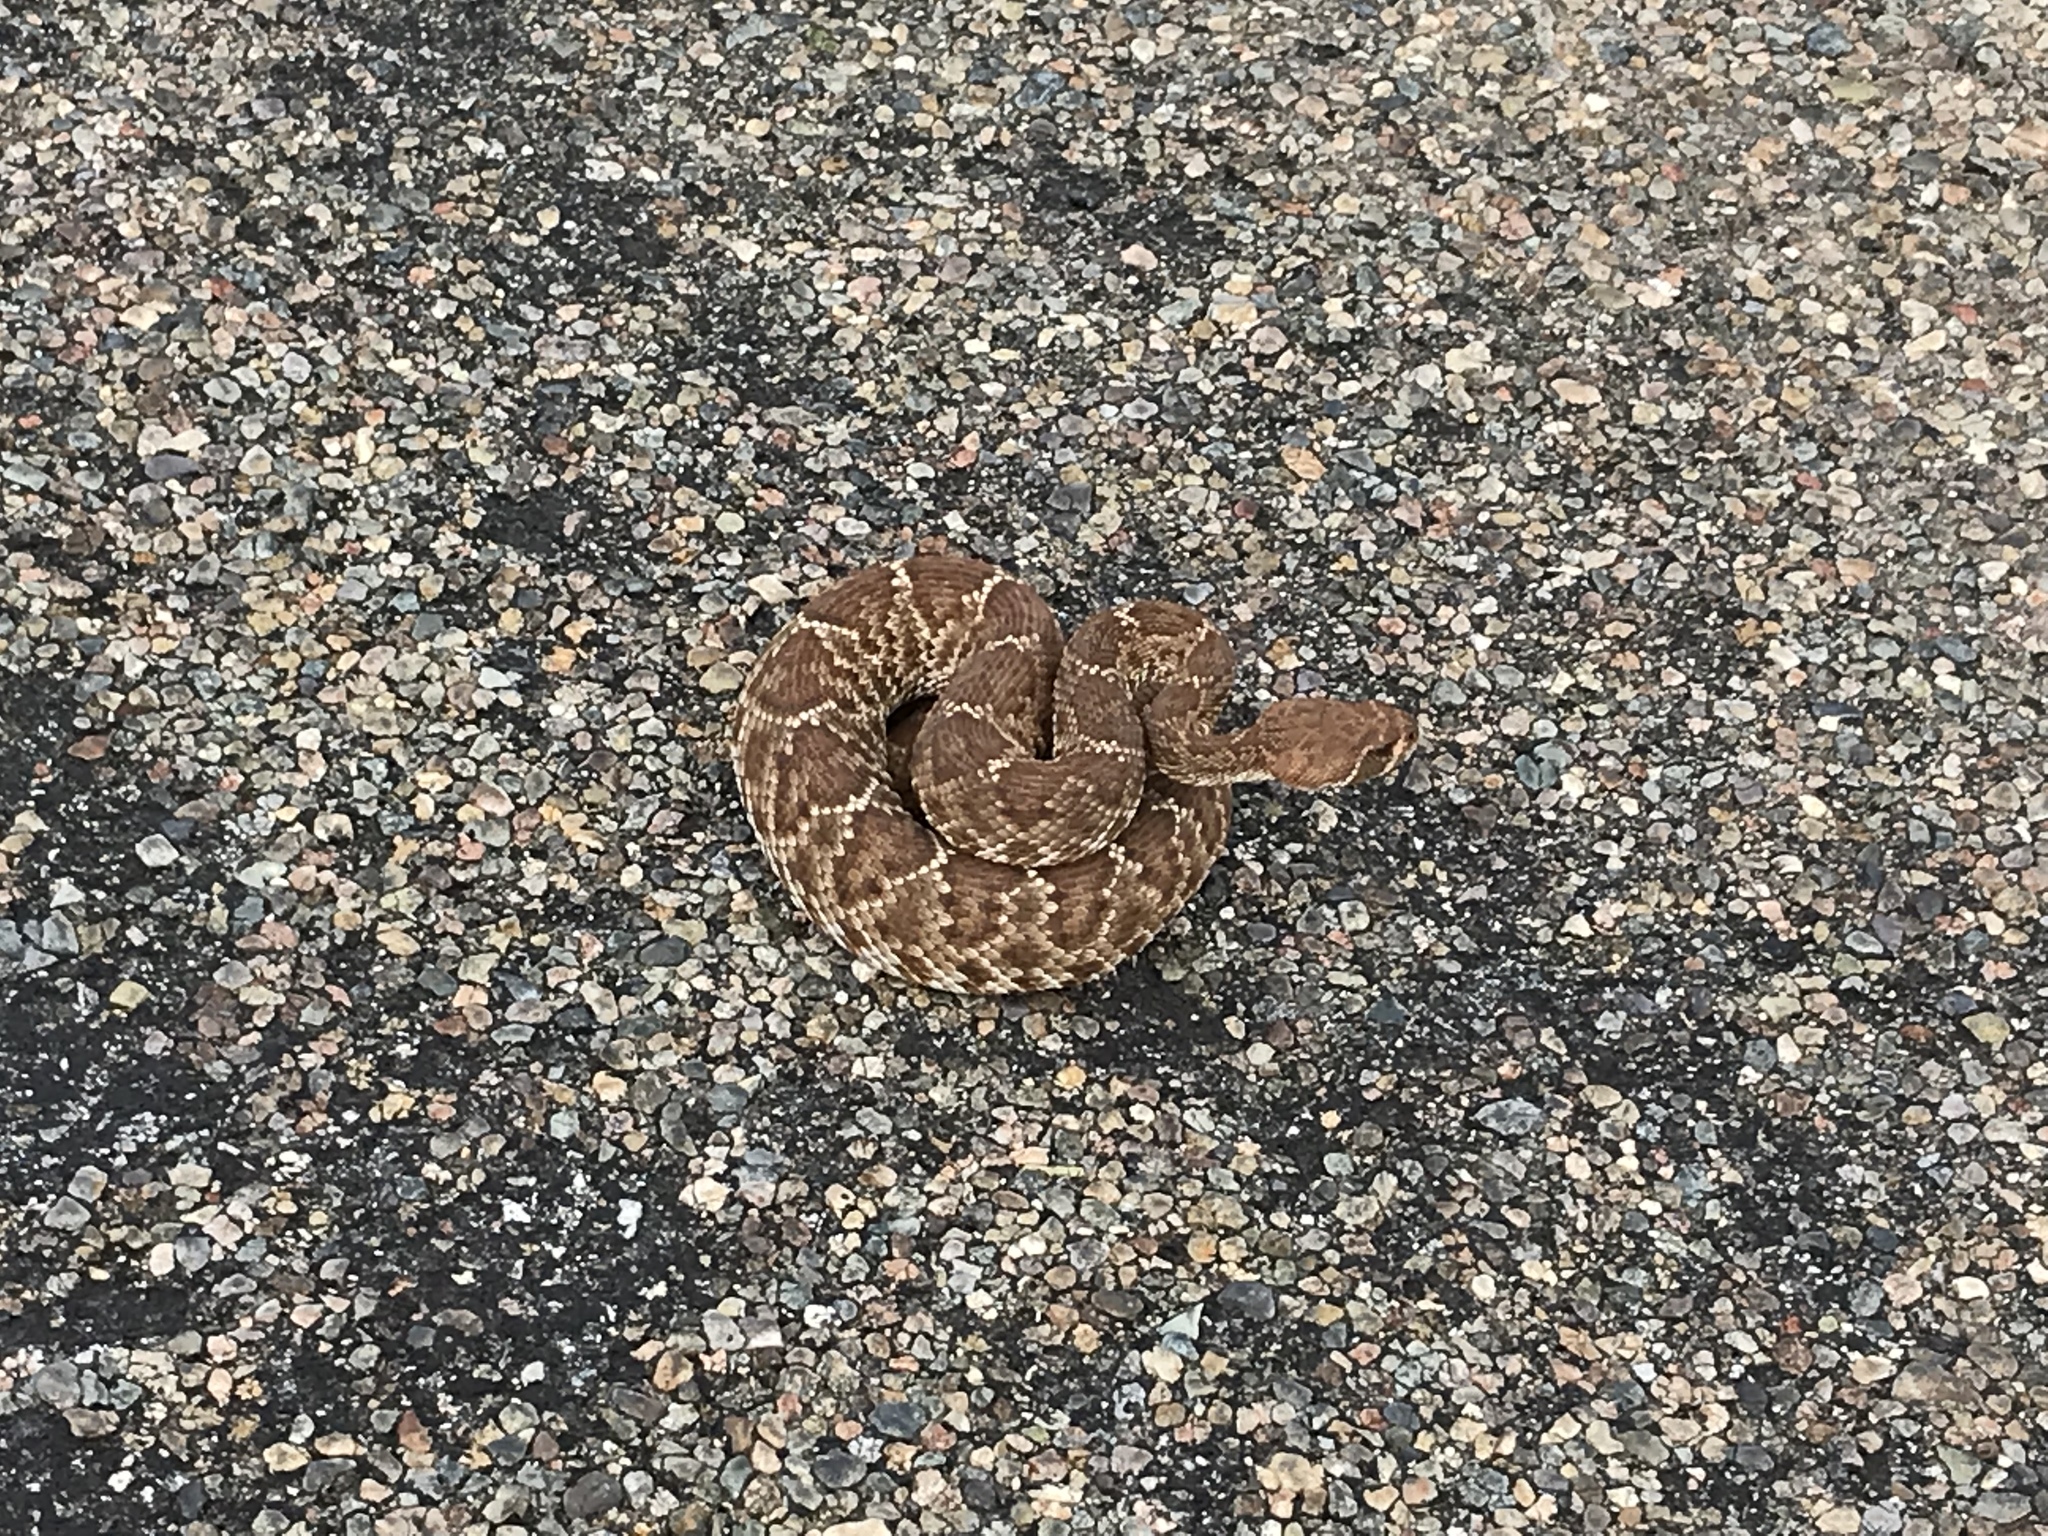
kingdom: Animalia
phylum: Chordata
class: Squamata
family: Viperidae
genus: Crotalus
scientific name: Crotalus ruber
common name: Red diamond rattlesnake
